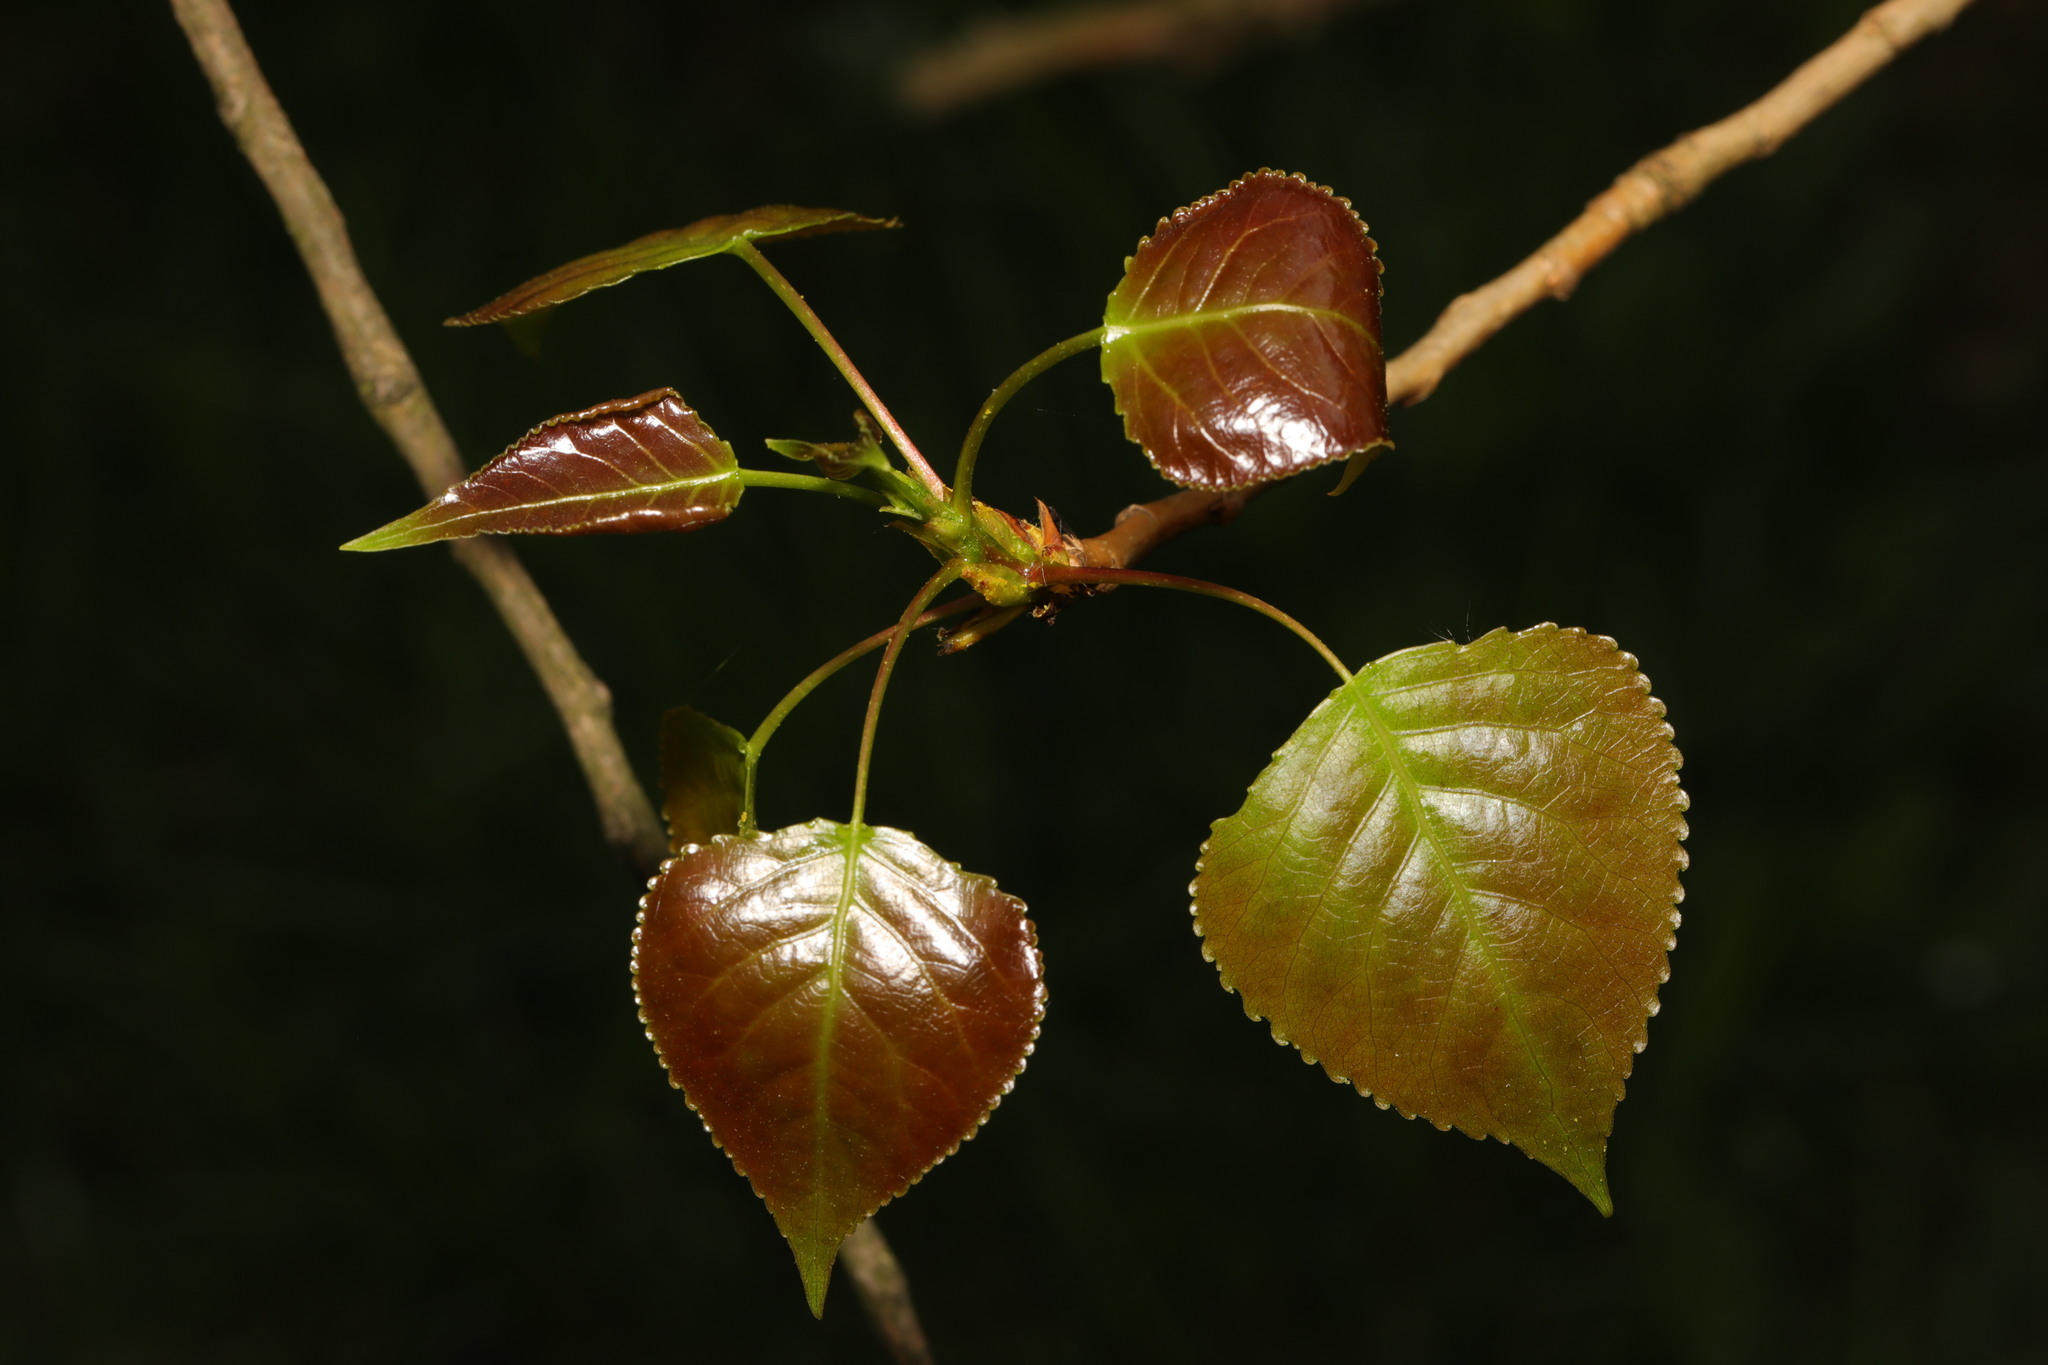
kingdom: Plantae
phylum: Tracheophyta
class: Magnoliopsida
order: Malpighiales
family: Salicaceae
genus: Populus
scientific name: Populus canadensis
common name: Carolina poplar
